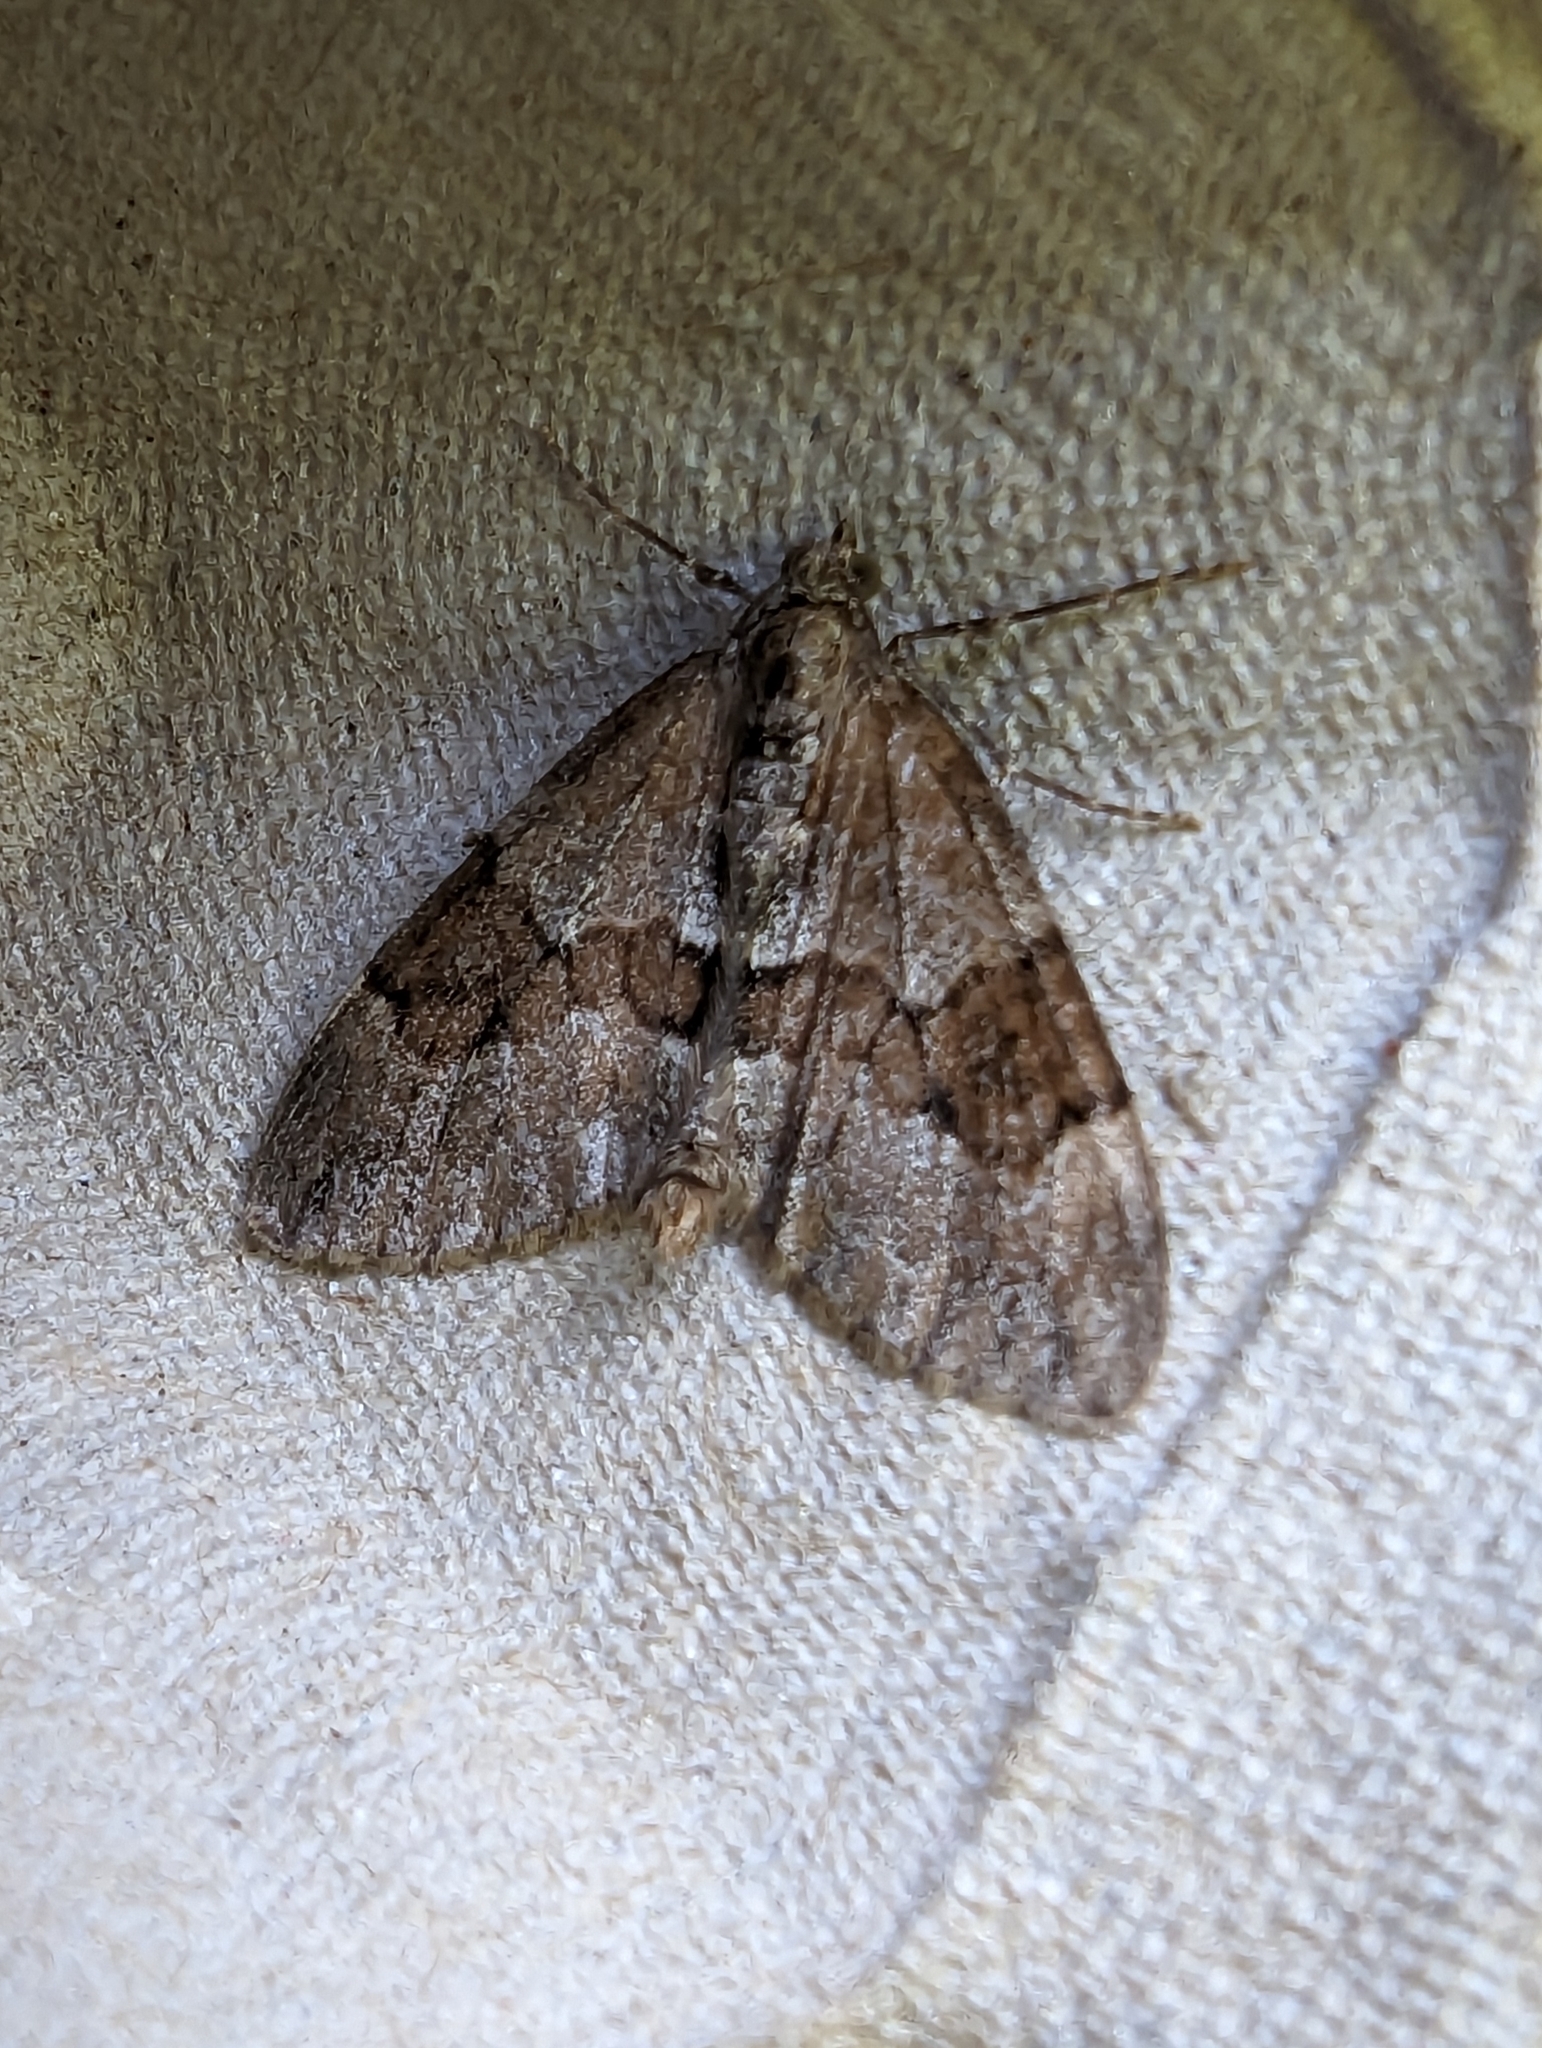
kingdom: Animalia
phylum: Arthropoda
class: Insecta
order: Lepidoptera
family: Geometridae
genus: Thera
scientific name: Thera
